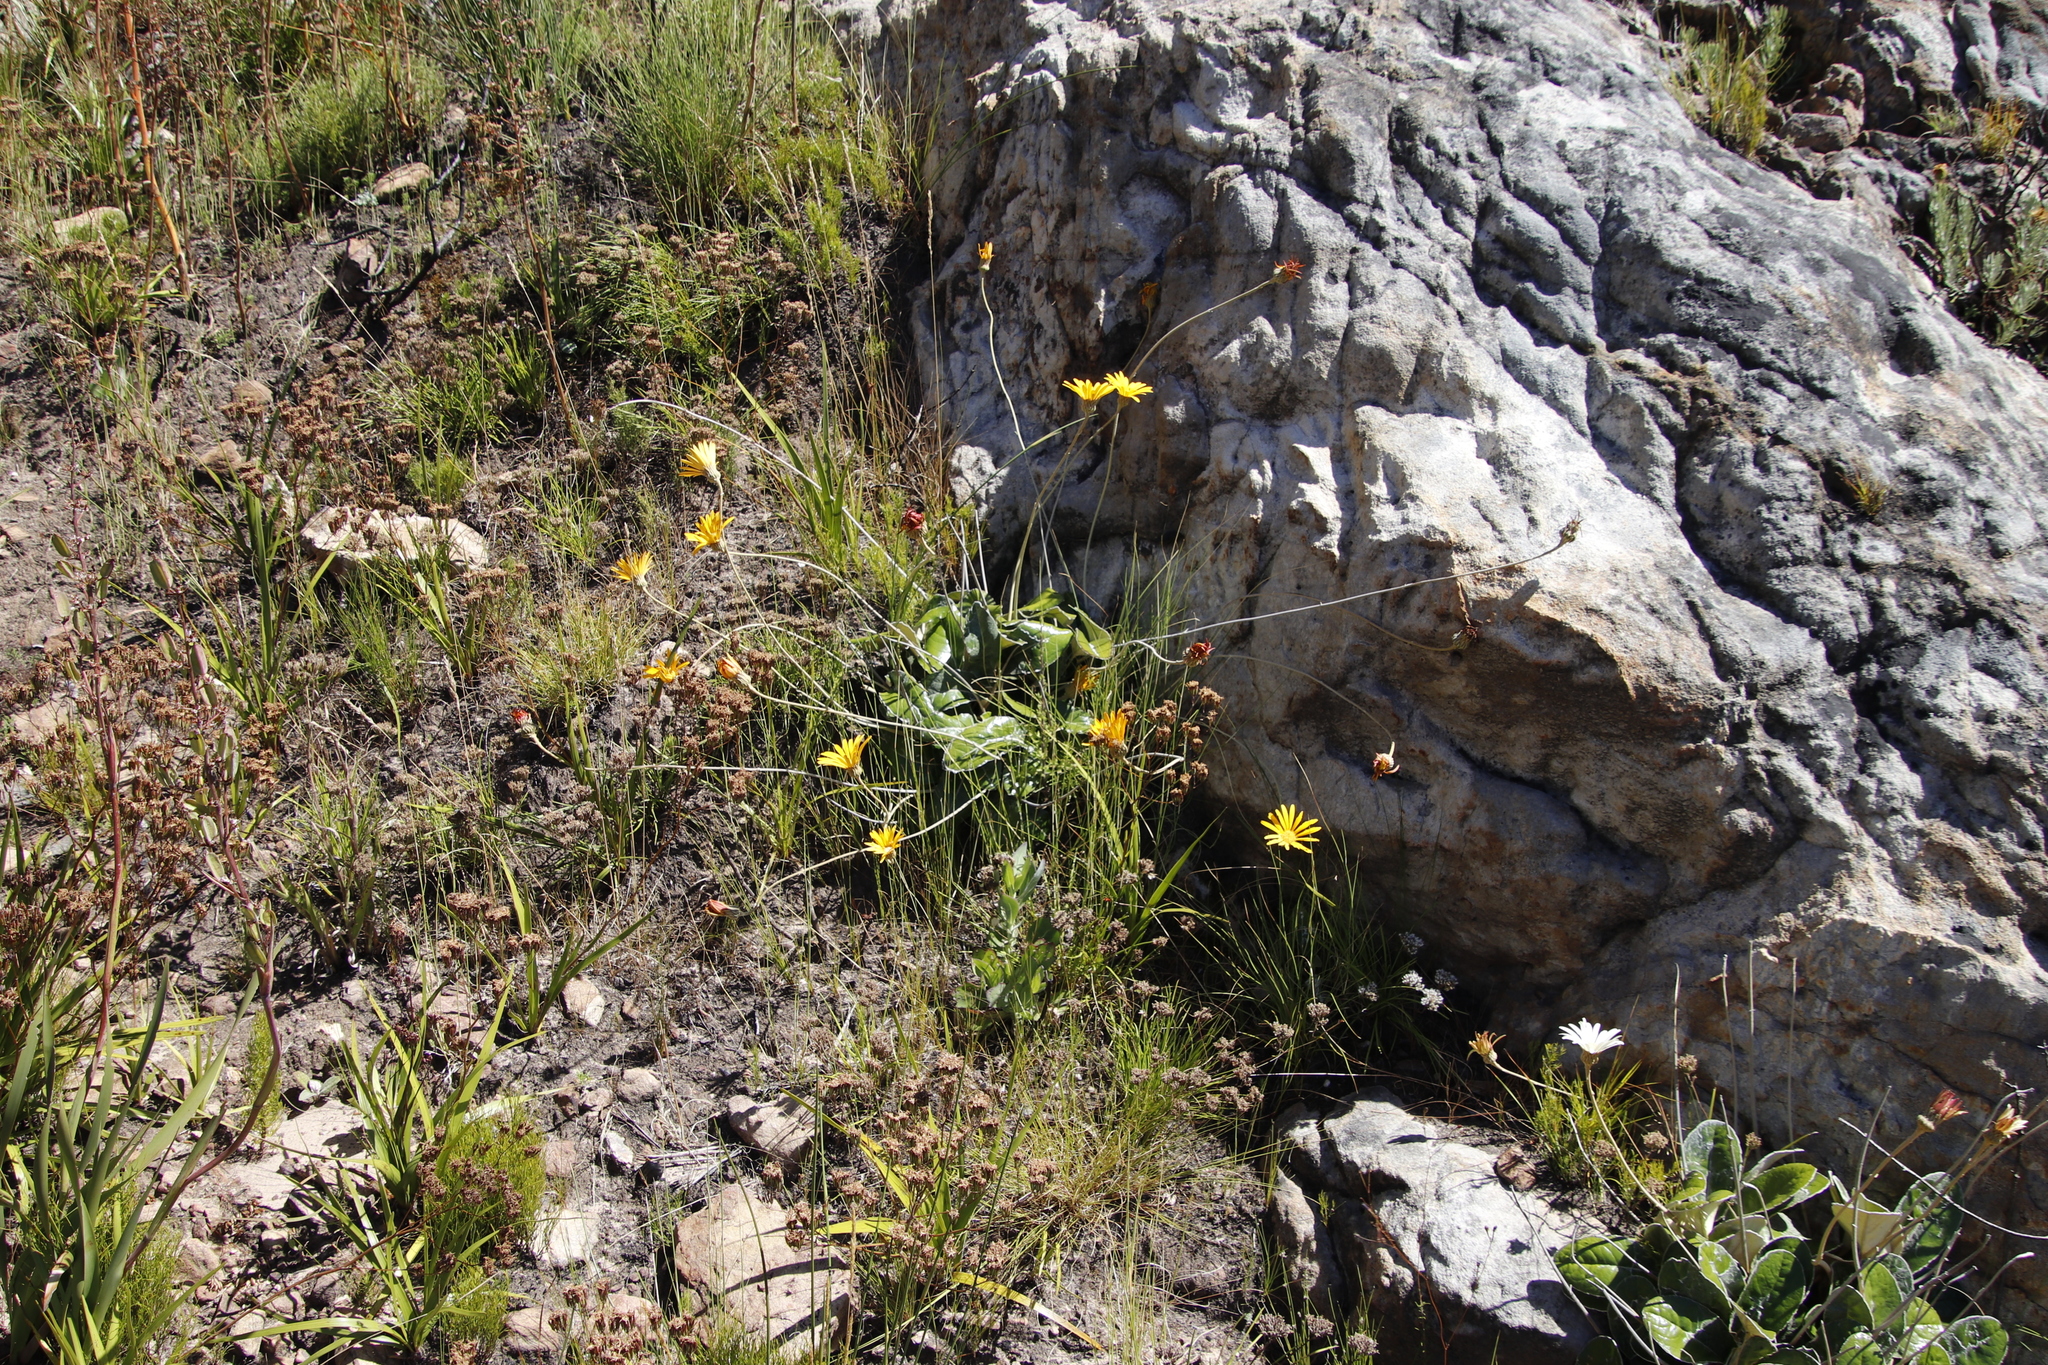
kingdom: Plantae
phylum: Tracheophyta
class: Magnoliopsida
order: Asterales
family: Asteraceae
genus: Gerbera
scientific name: Gerbera tomentosa
